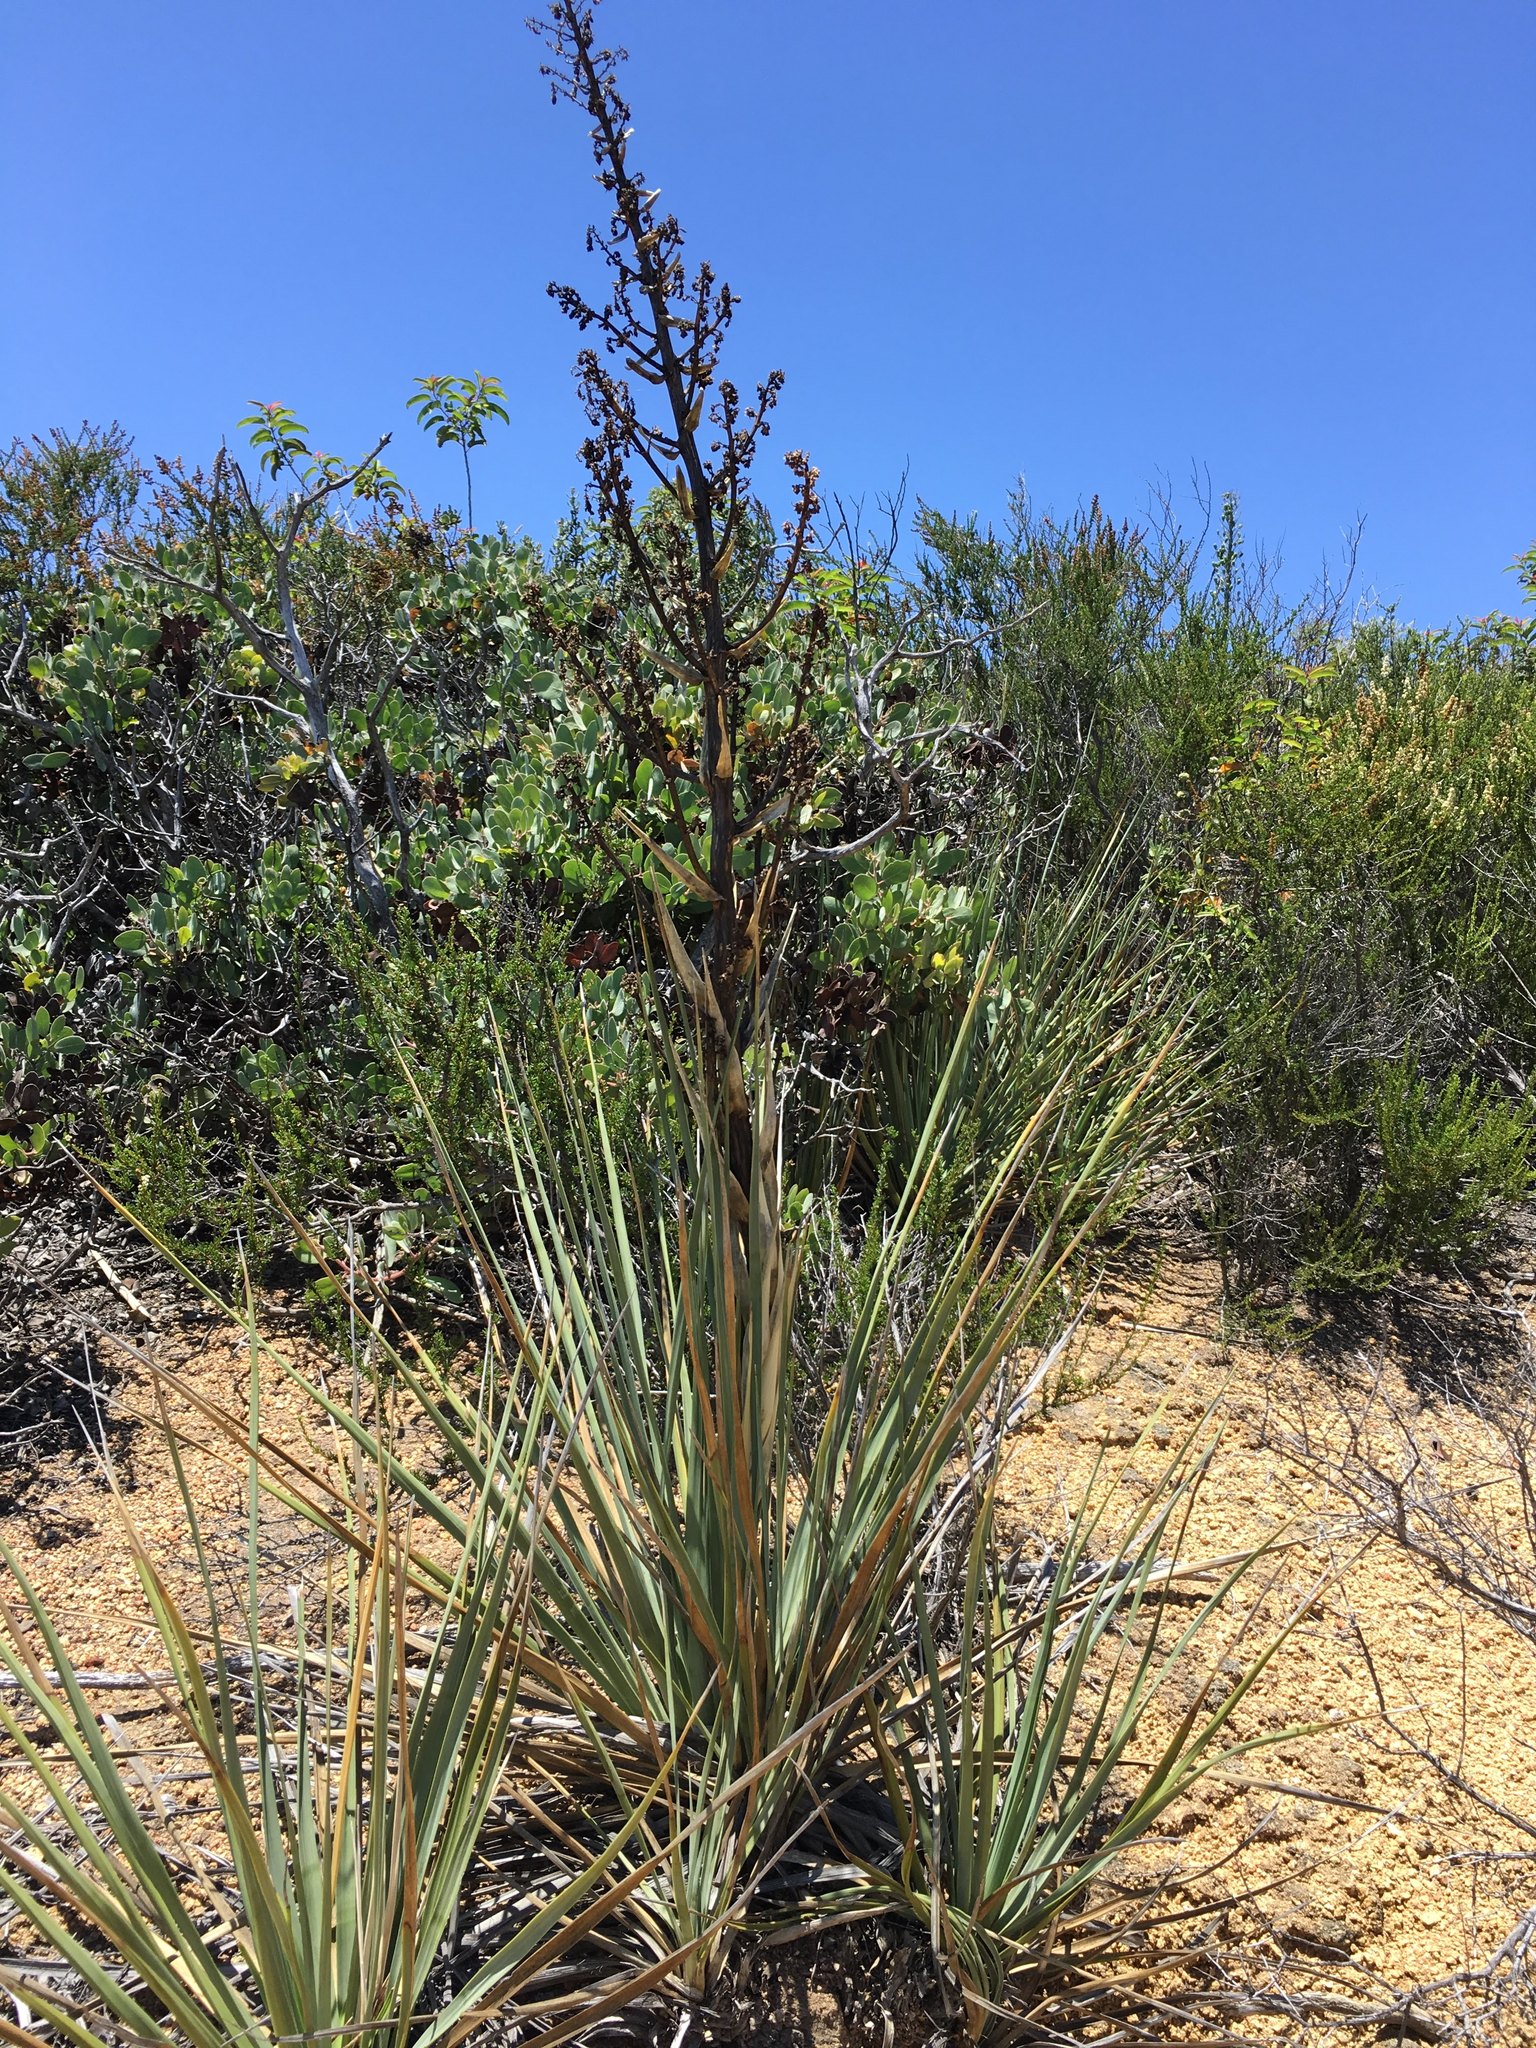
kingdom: Plantae
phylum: Tracheophyta
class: Liliopsida
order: Asparagales
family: Asparagaceae
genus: Nolina
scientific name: Nolina cismontana
